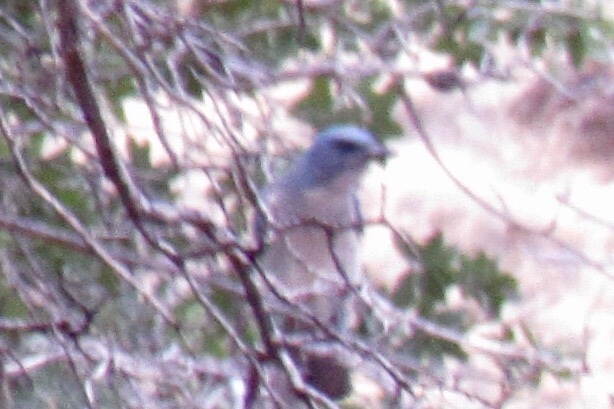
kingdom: Animalia
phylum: Chordata
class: Aves
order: Passeriformes
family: Corvidae
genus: Aphelocoma
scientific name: Aphelocoma wollweberi
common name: Mexican jay
